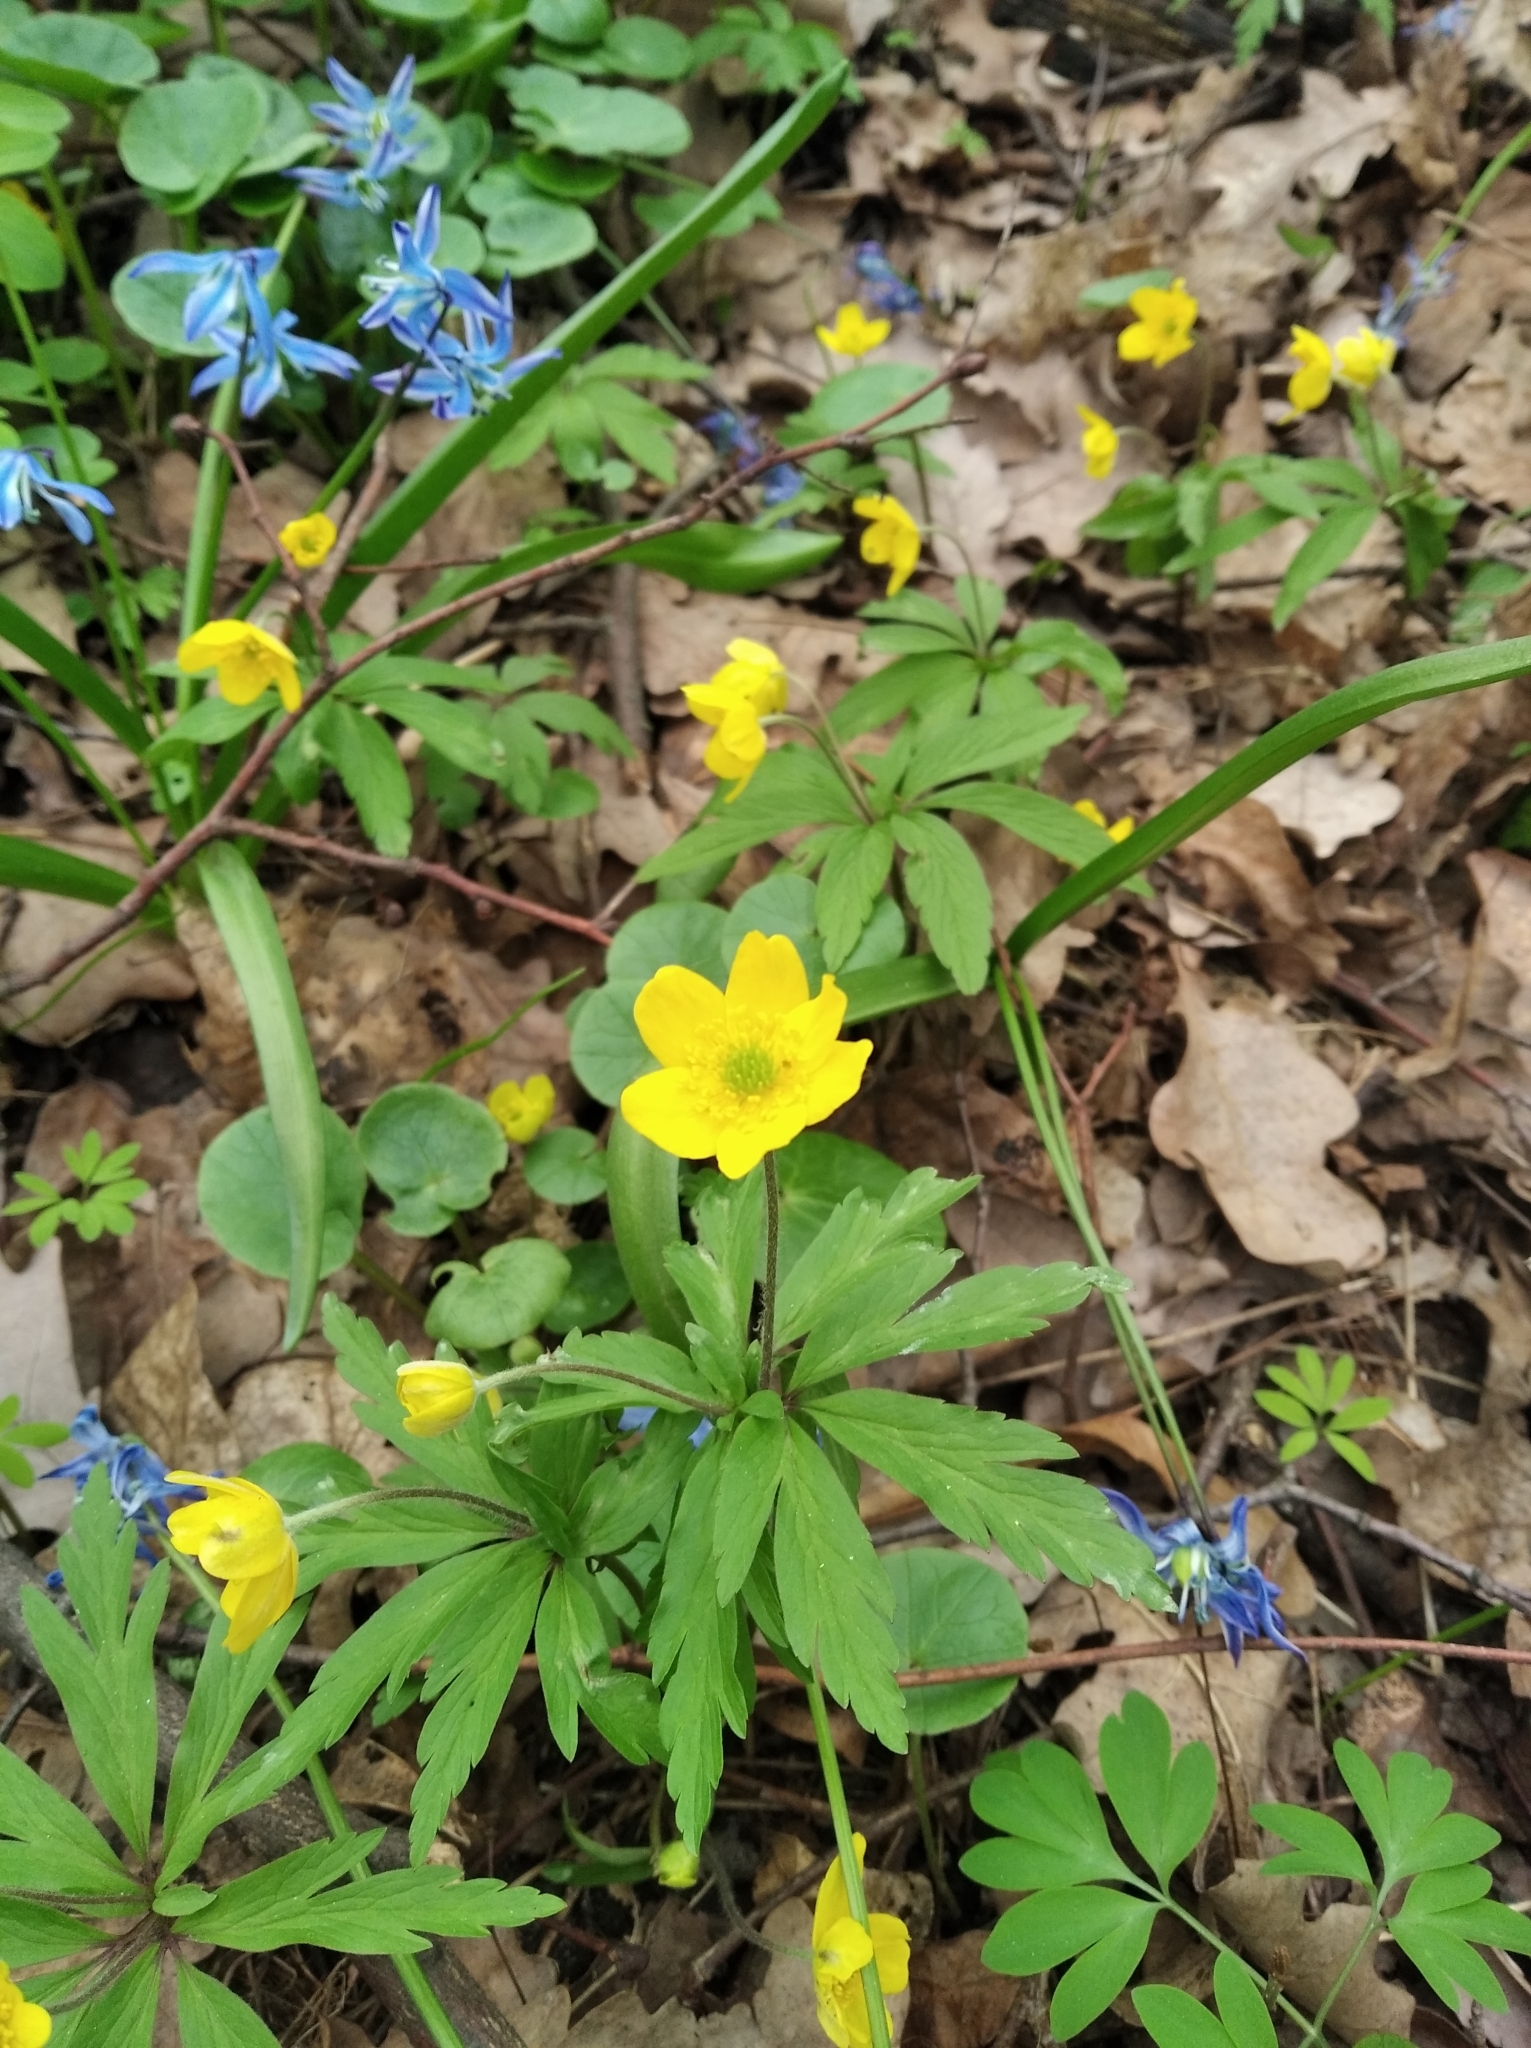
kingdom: Plantae
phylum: Tracheophyta
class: Magnoliopsida
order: Ranunculales
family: Ranunculaceae
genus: Anemone
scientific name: Anemone ranunculoides
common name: Yellow anemone
